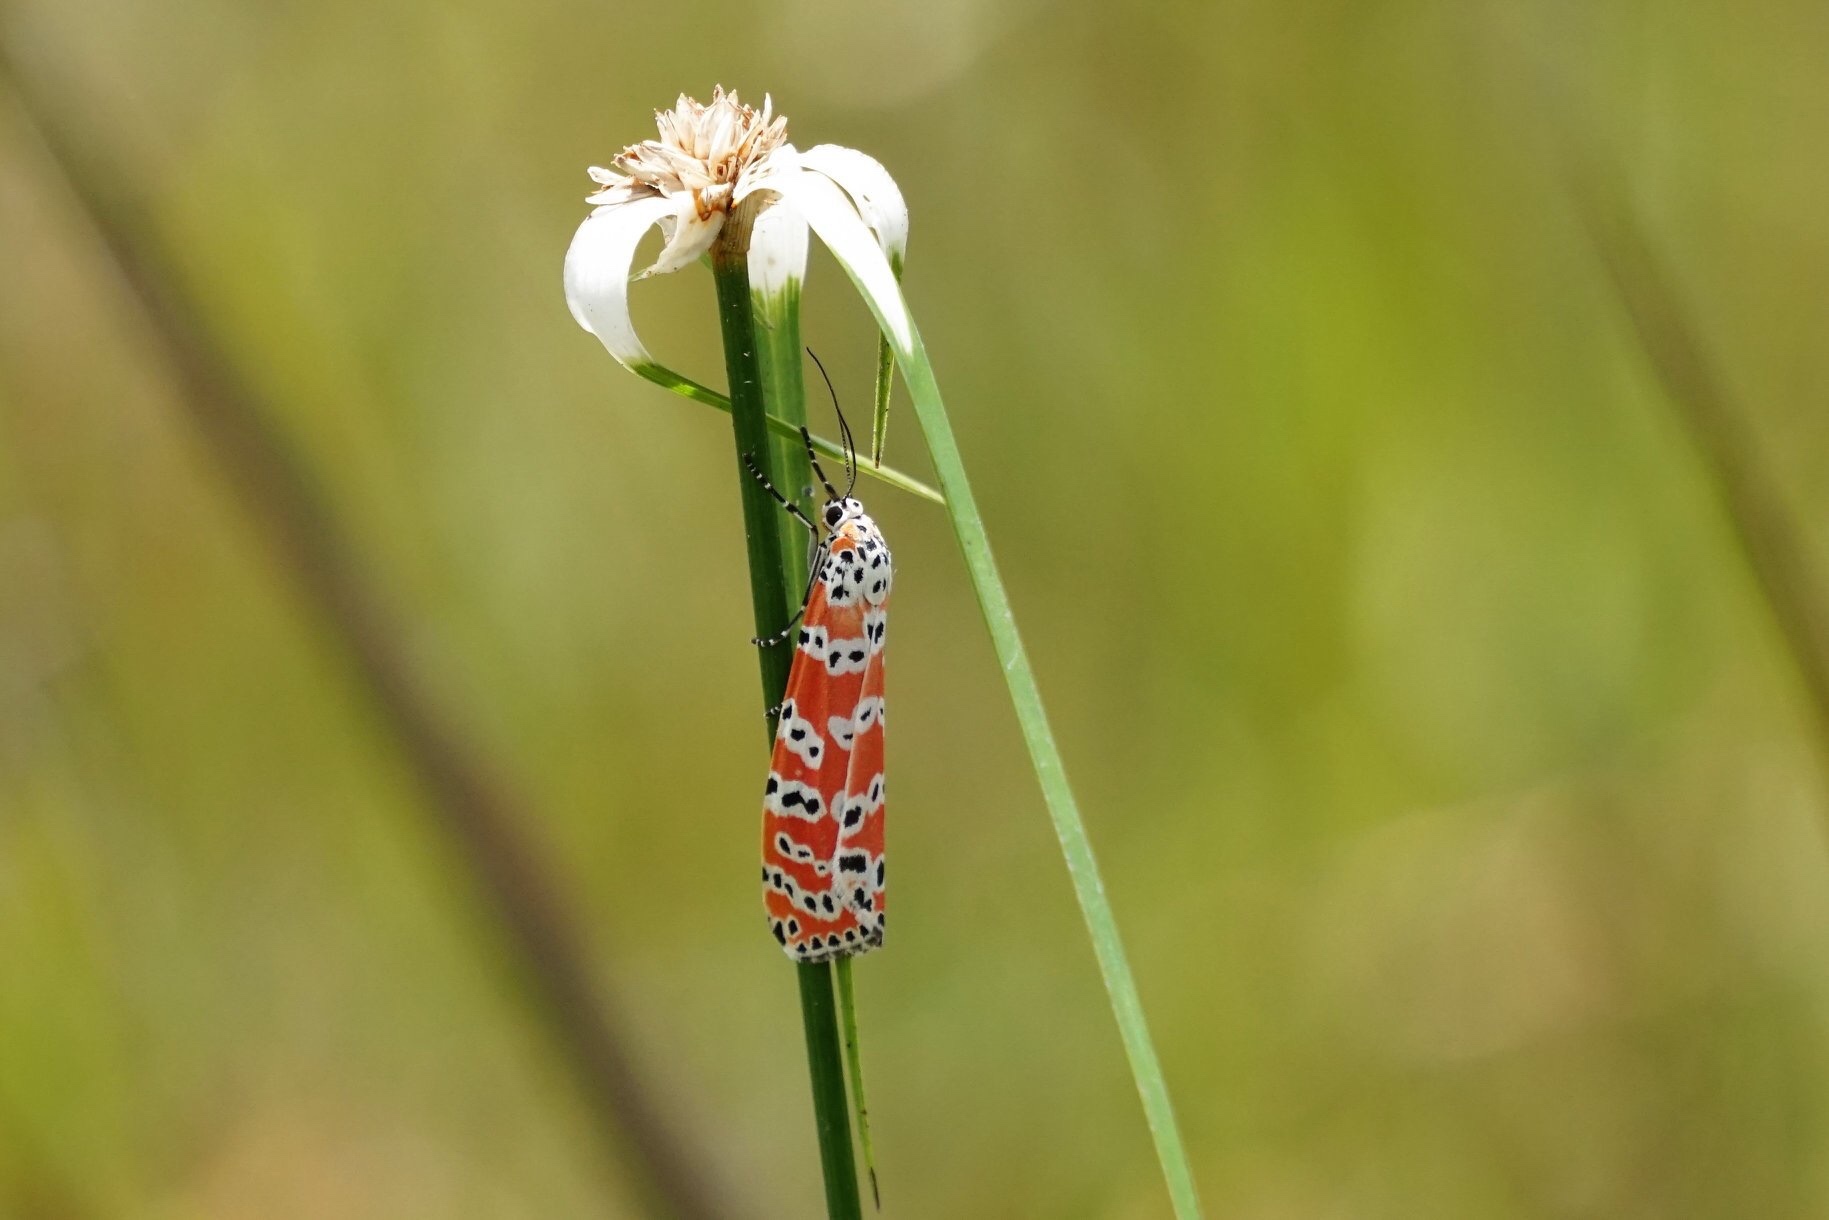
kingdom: Animalia
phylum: Arthropoda
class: Insecta
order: Lepidoptera
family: Erebidae
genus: Utetheisa
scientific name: Utetheisa ornatrix
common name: Beautiful utetheisa
